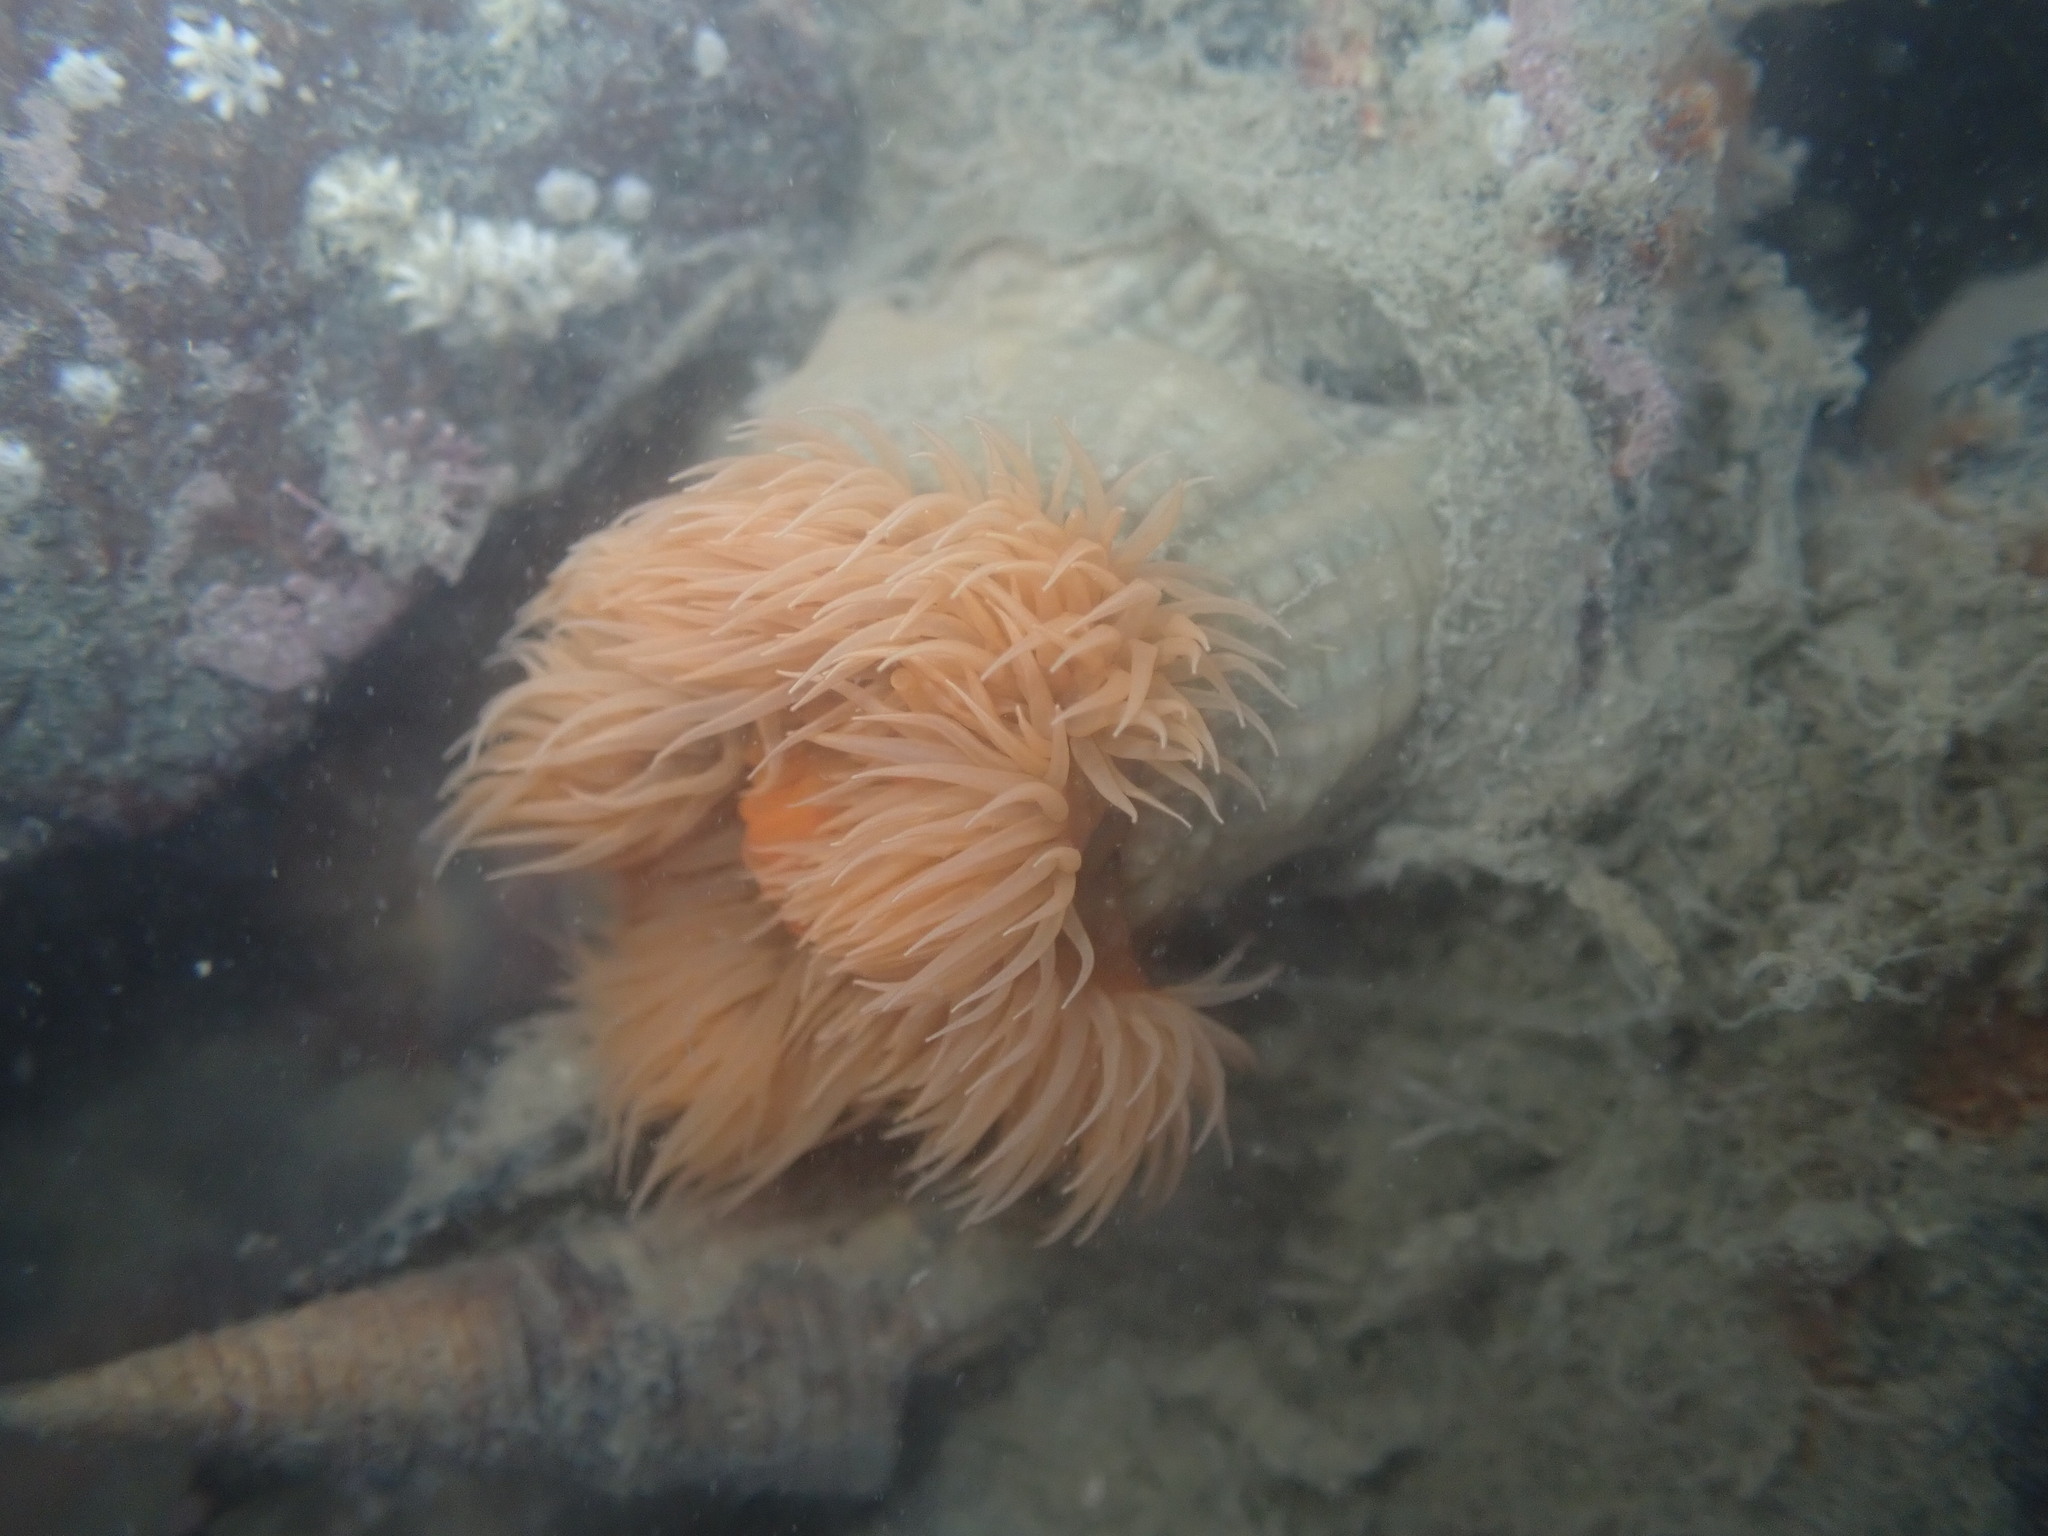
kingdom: Animalia
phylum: Cnidaria
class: Anthozoa
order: Actiniaria
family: Diadumenidae
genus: Diadumene
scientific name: Diadumene neozelanica
